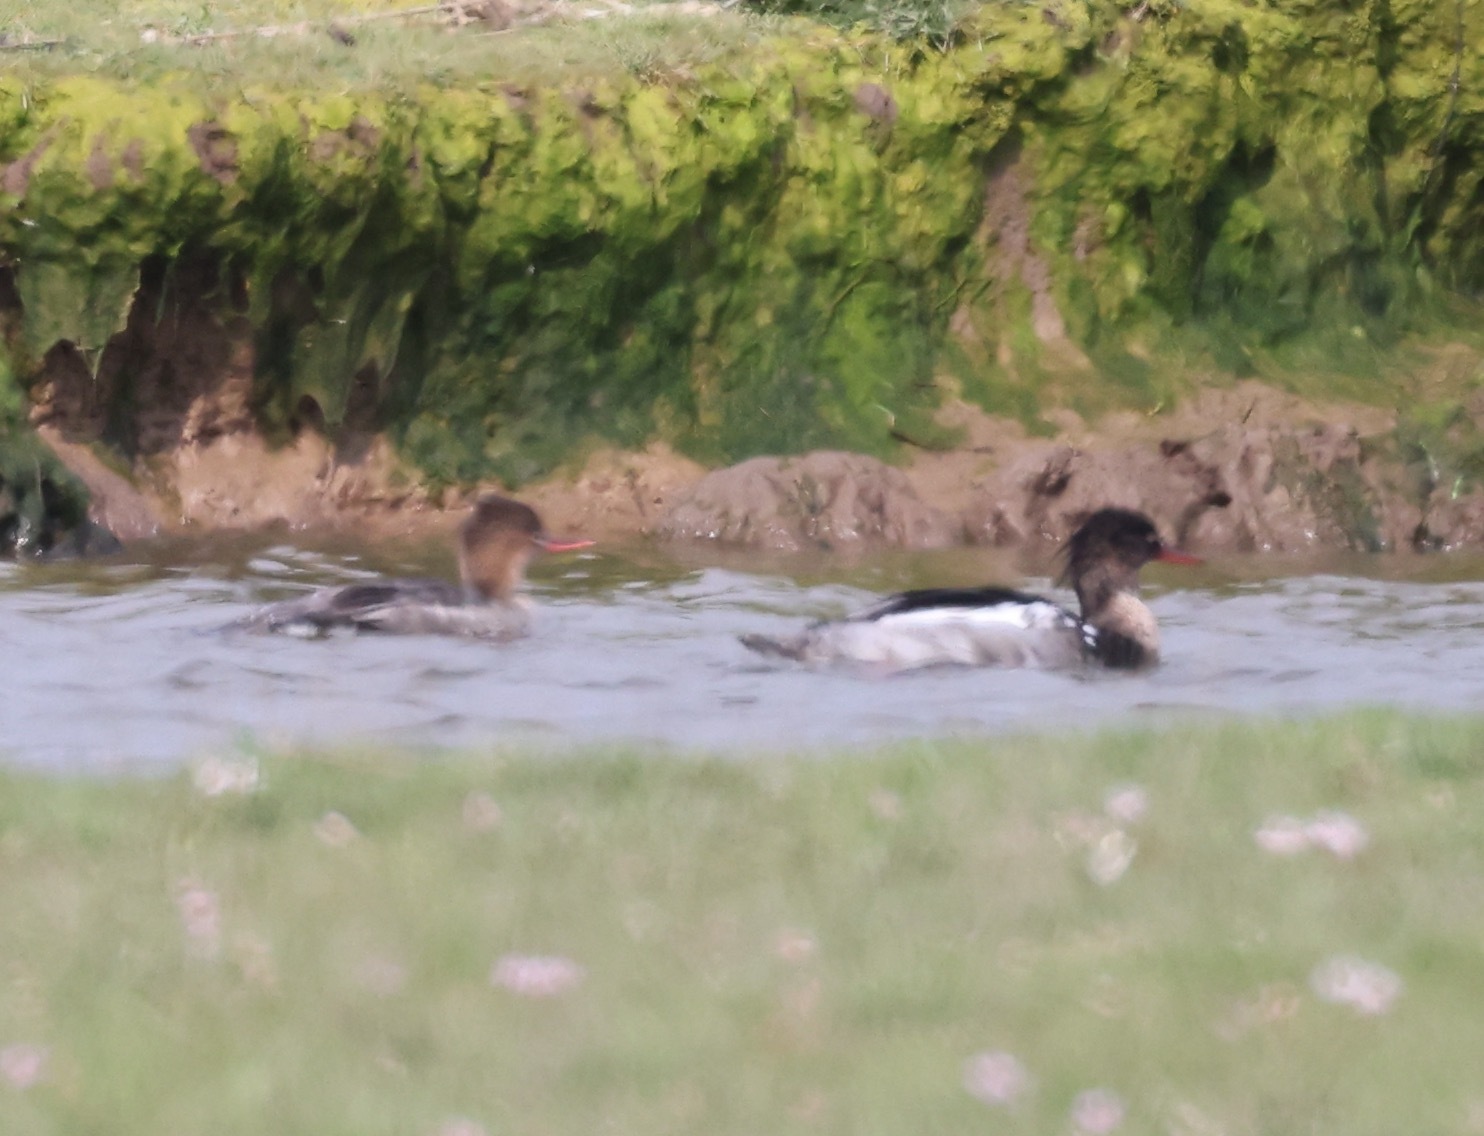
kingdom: Animalia
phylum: Chordata
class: Aves
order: Anseriformes
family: Anatidae
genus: Mergus
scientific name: Mergus serrator
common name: Red-breasted merganser
